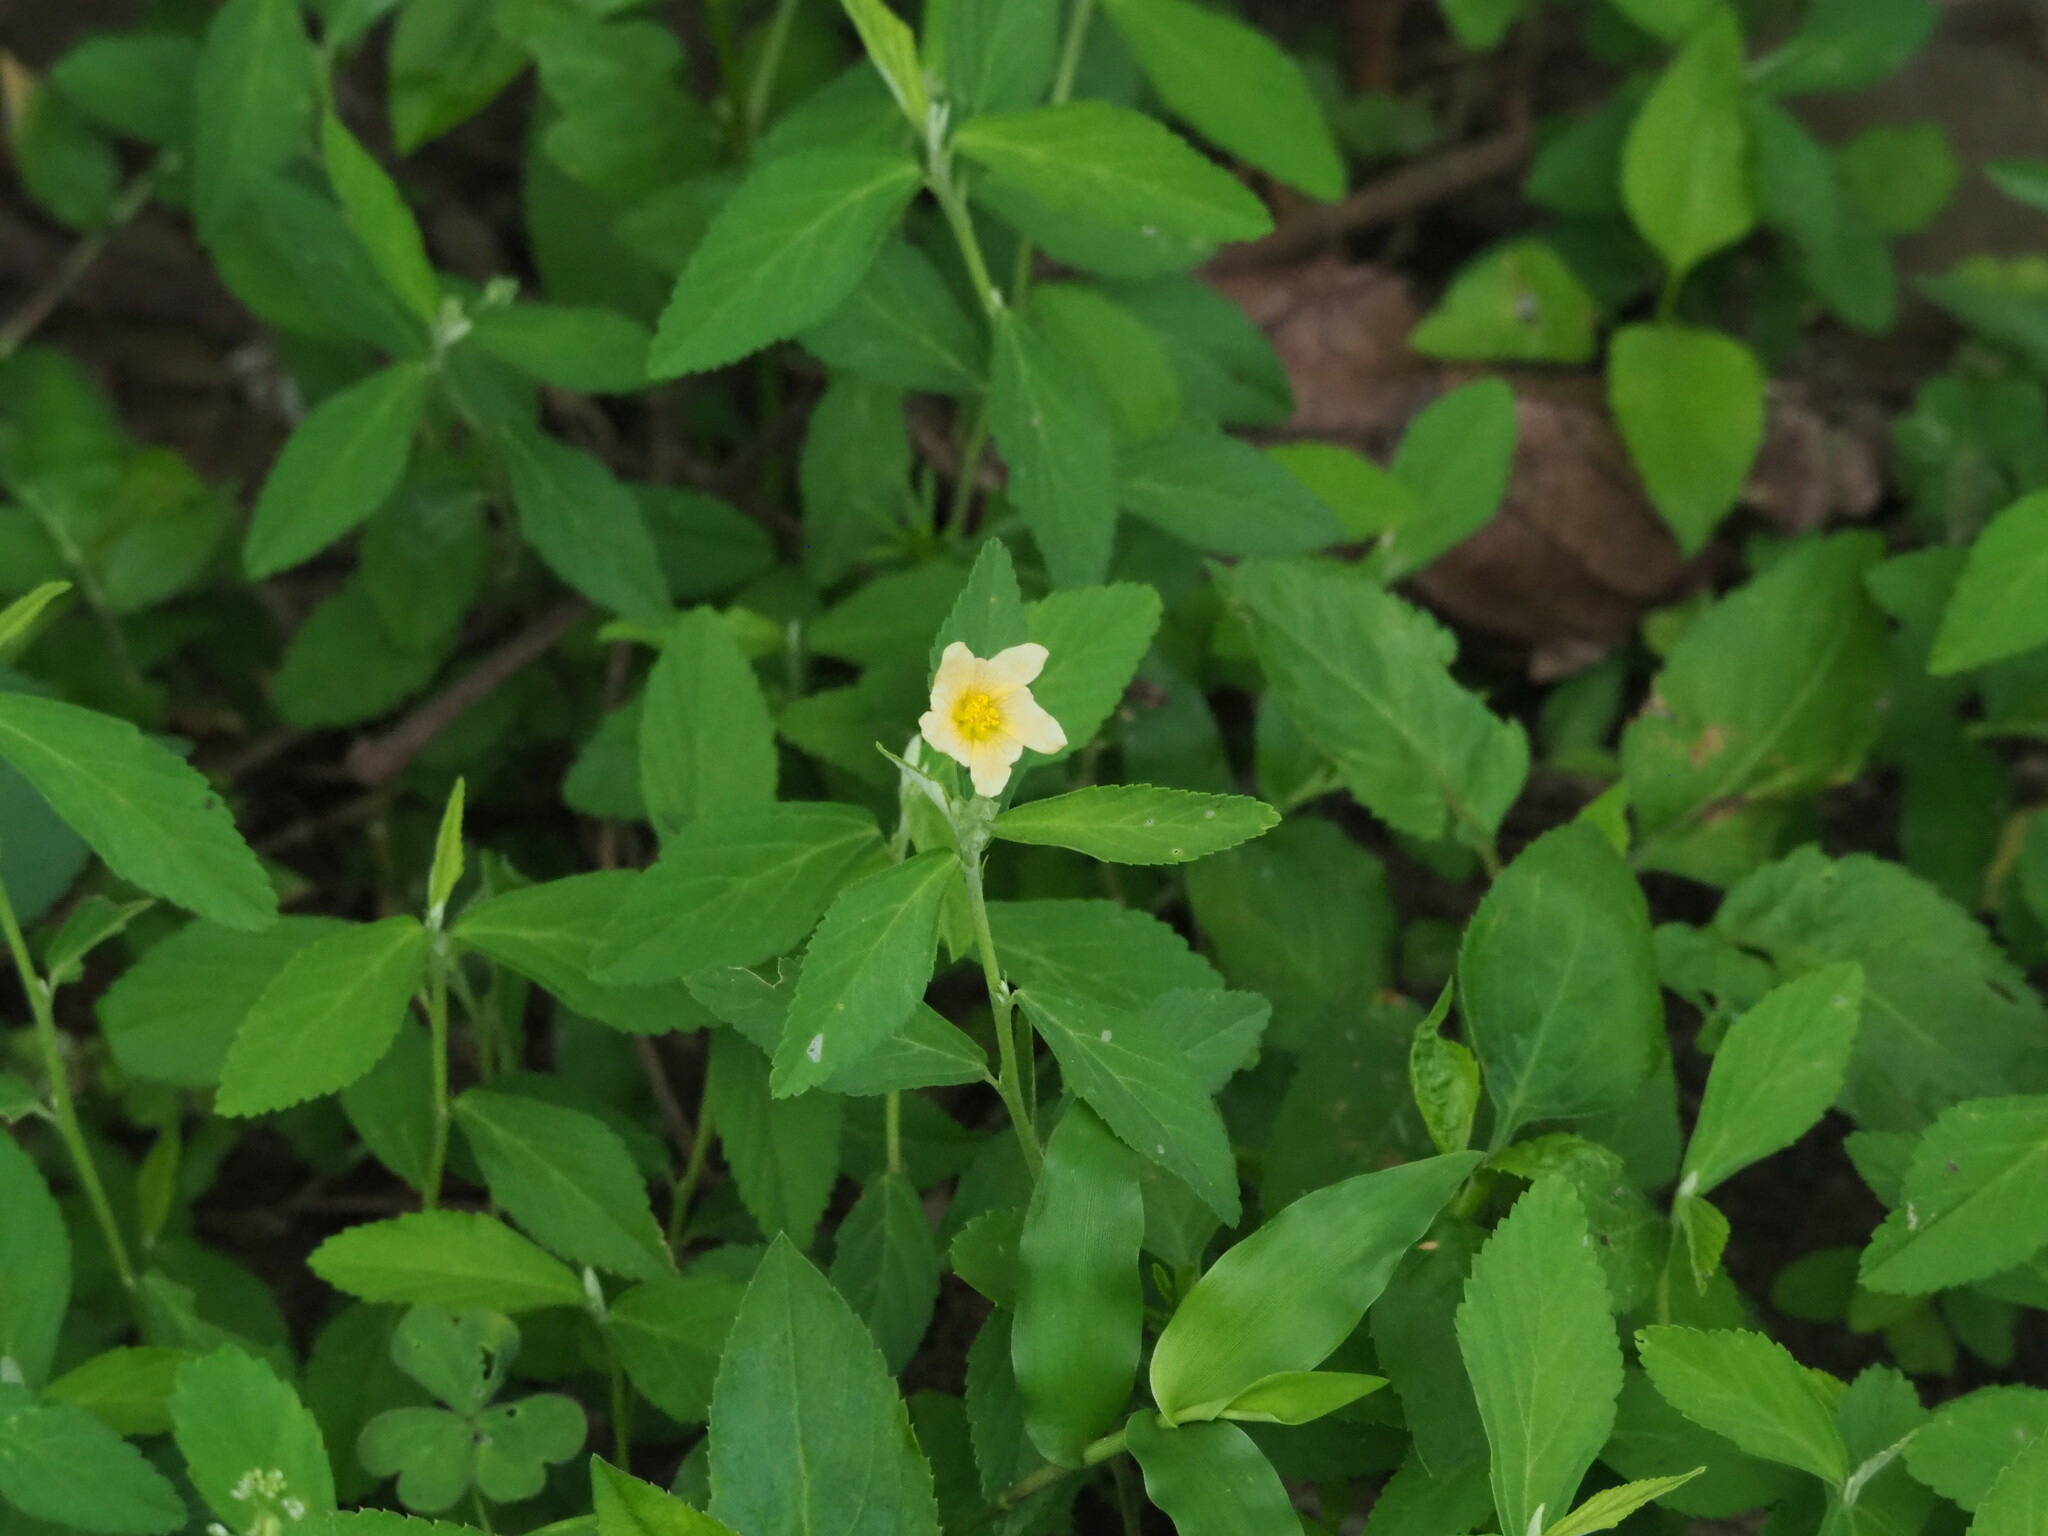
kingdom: Plantae
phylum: Tracheophyta
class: Magnoliopsida
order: Malvales
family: Malvaceae
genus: Sida
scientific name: Sida rhombifolia
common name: Queensland-hemp
